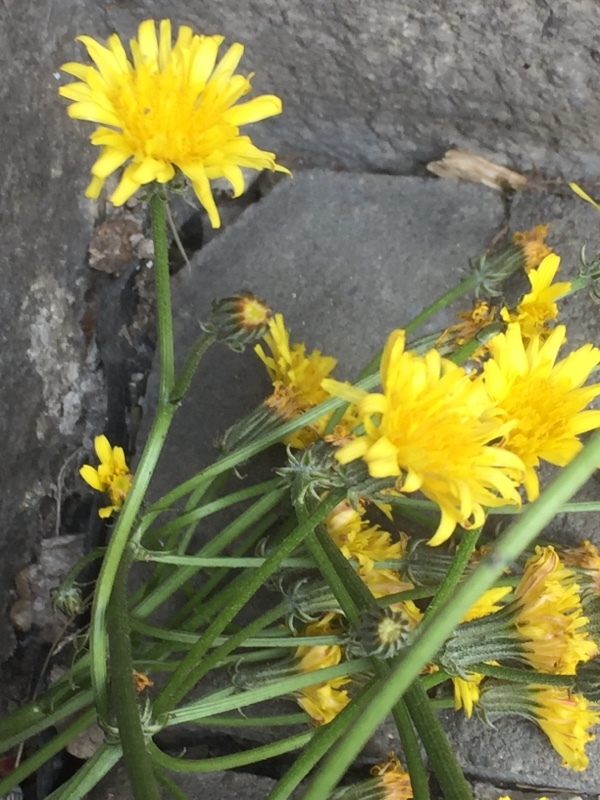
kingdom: Plantae
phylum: Tracheophyta
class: Magnoliopsida
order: Asterales
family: Asteraceae
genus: Crepis
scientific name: Crepis biennis
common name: Rough hawk's-beard
